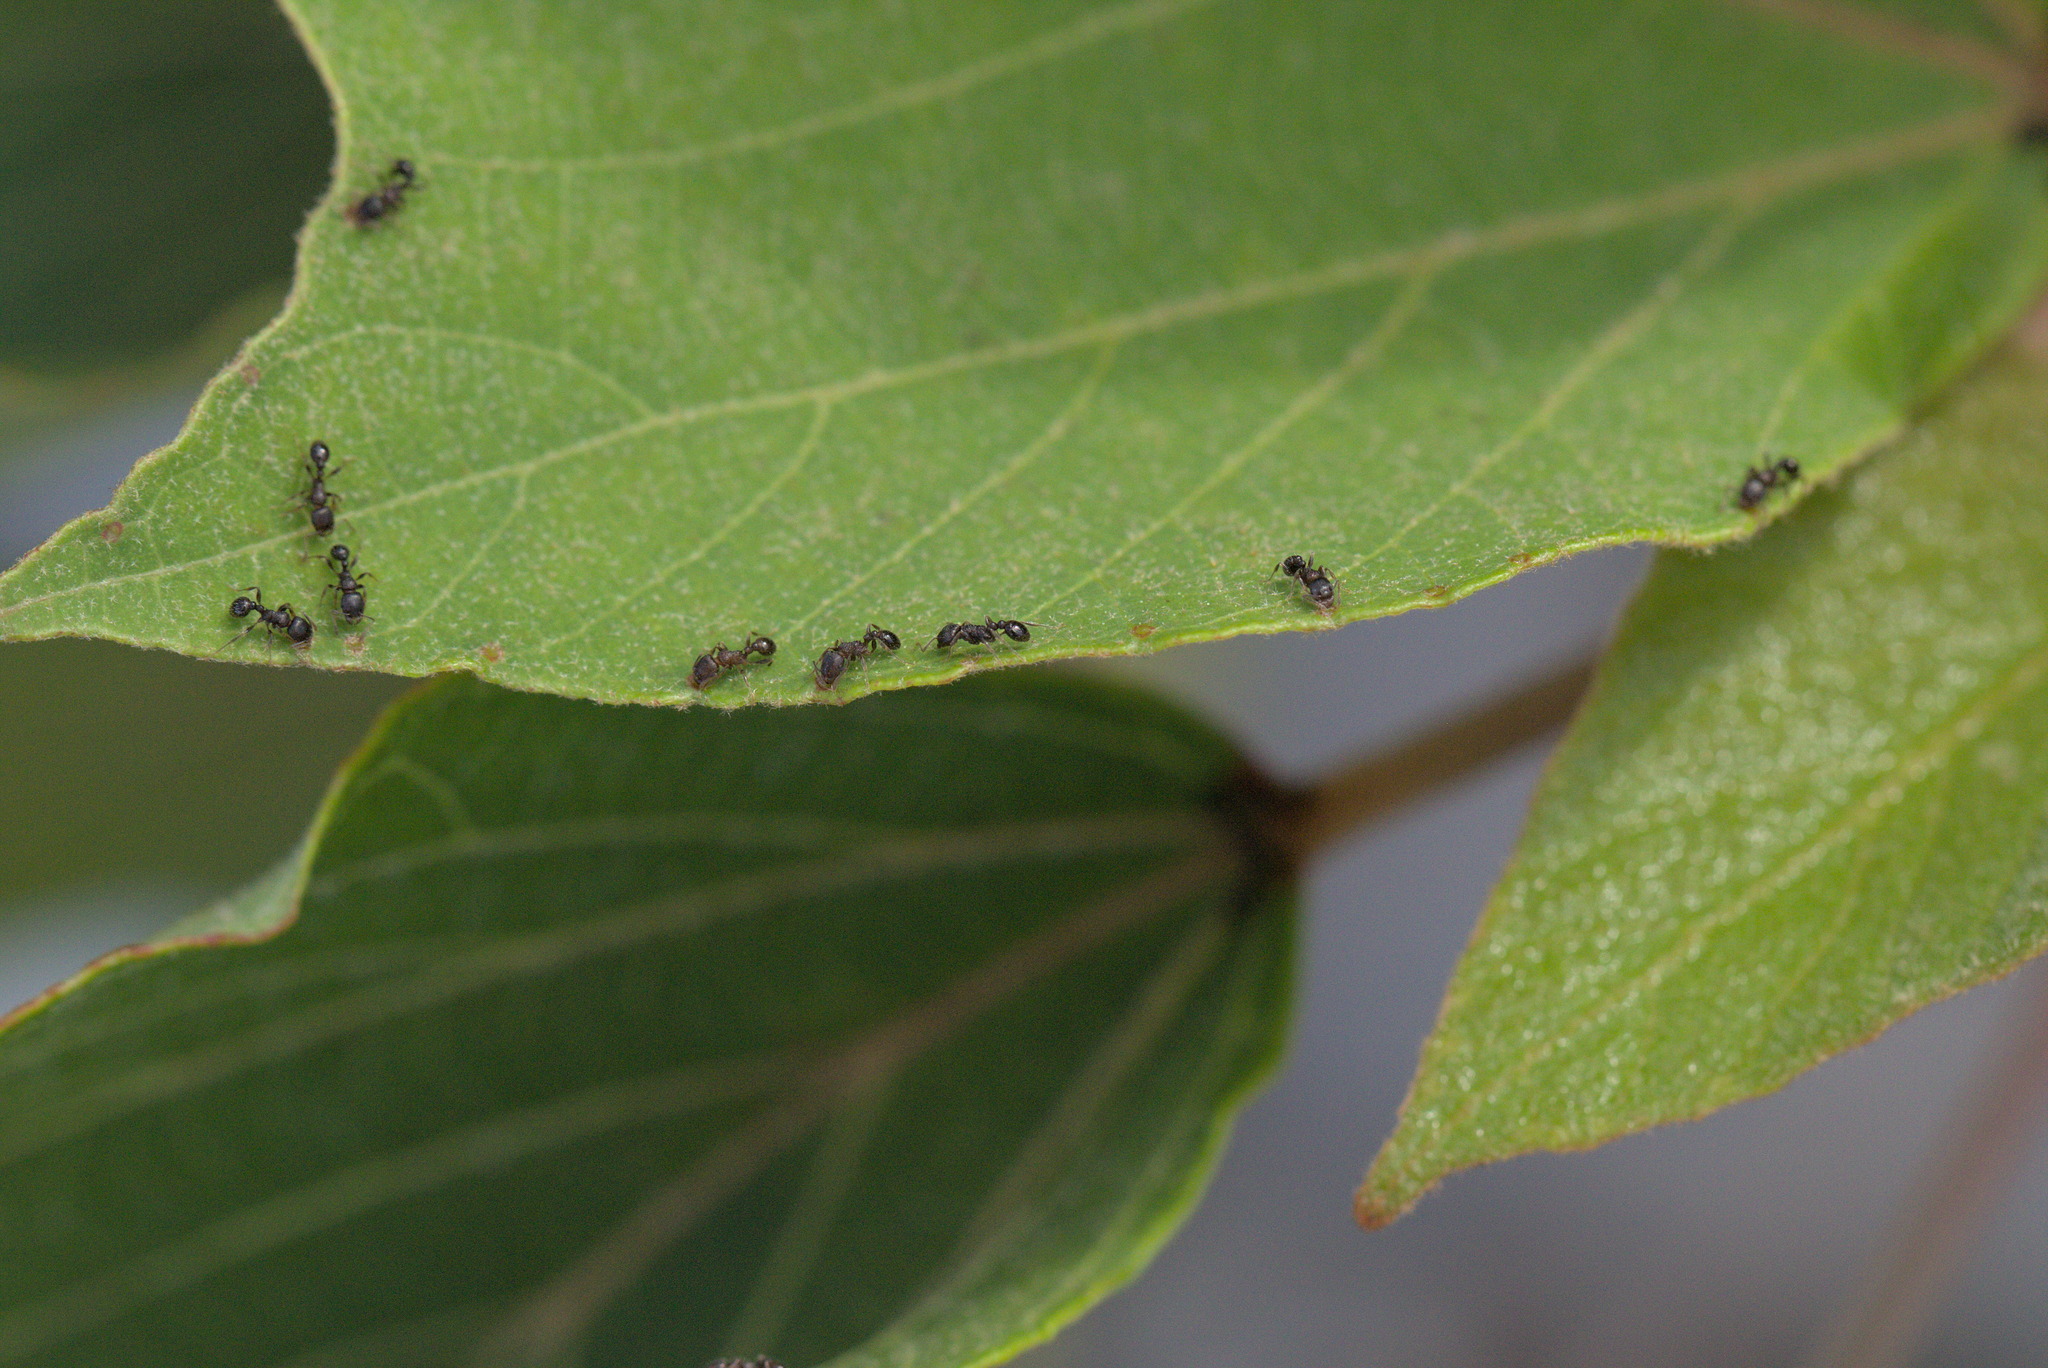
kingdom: Animalia
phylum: Arthropoda
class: Insecta
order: Hymenoptera
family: Formicidae
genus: Tetramorium
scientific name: Tetramorium tsushimae
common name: Ant
